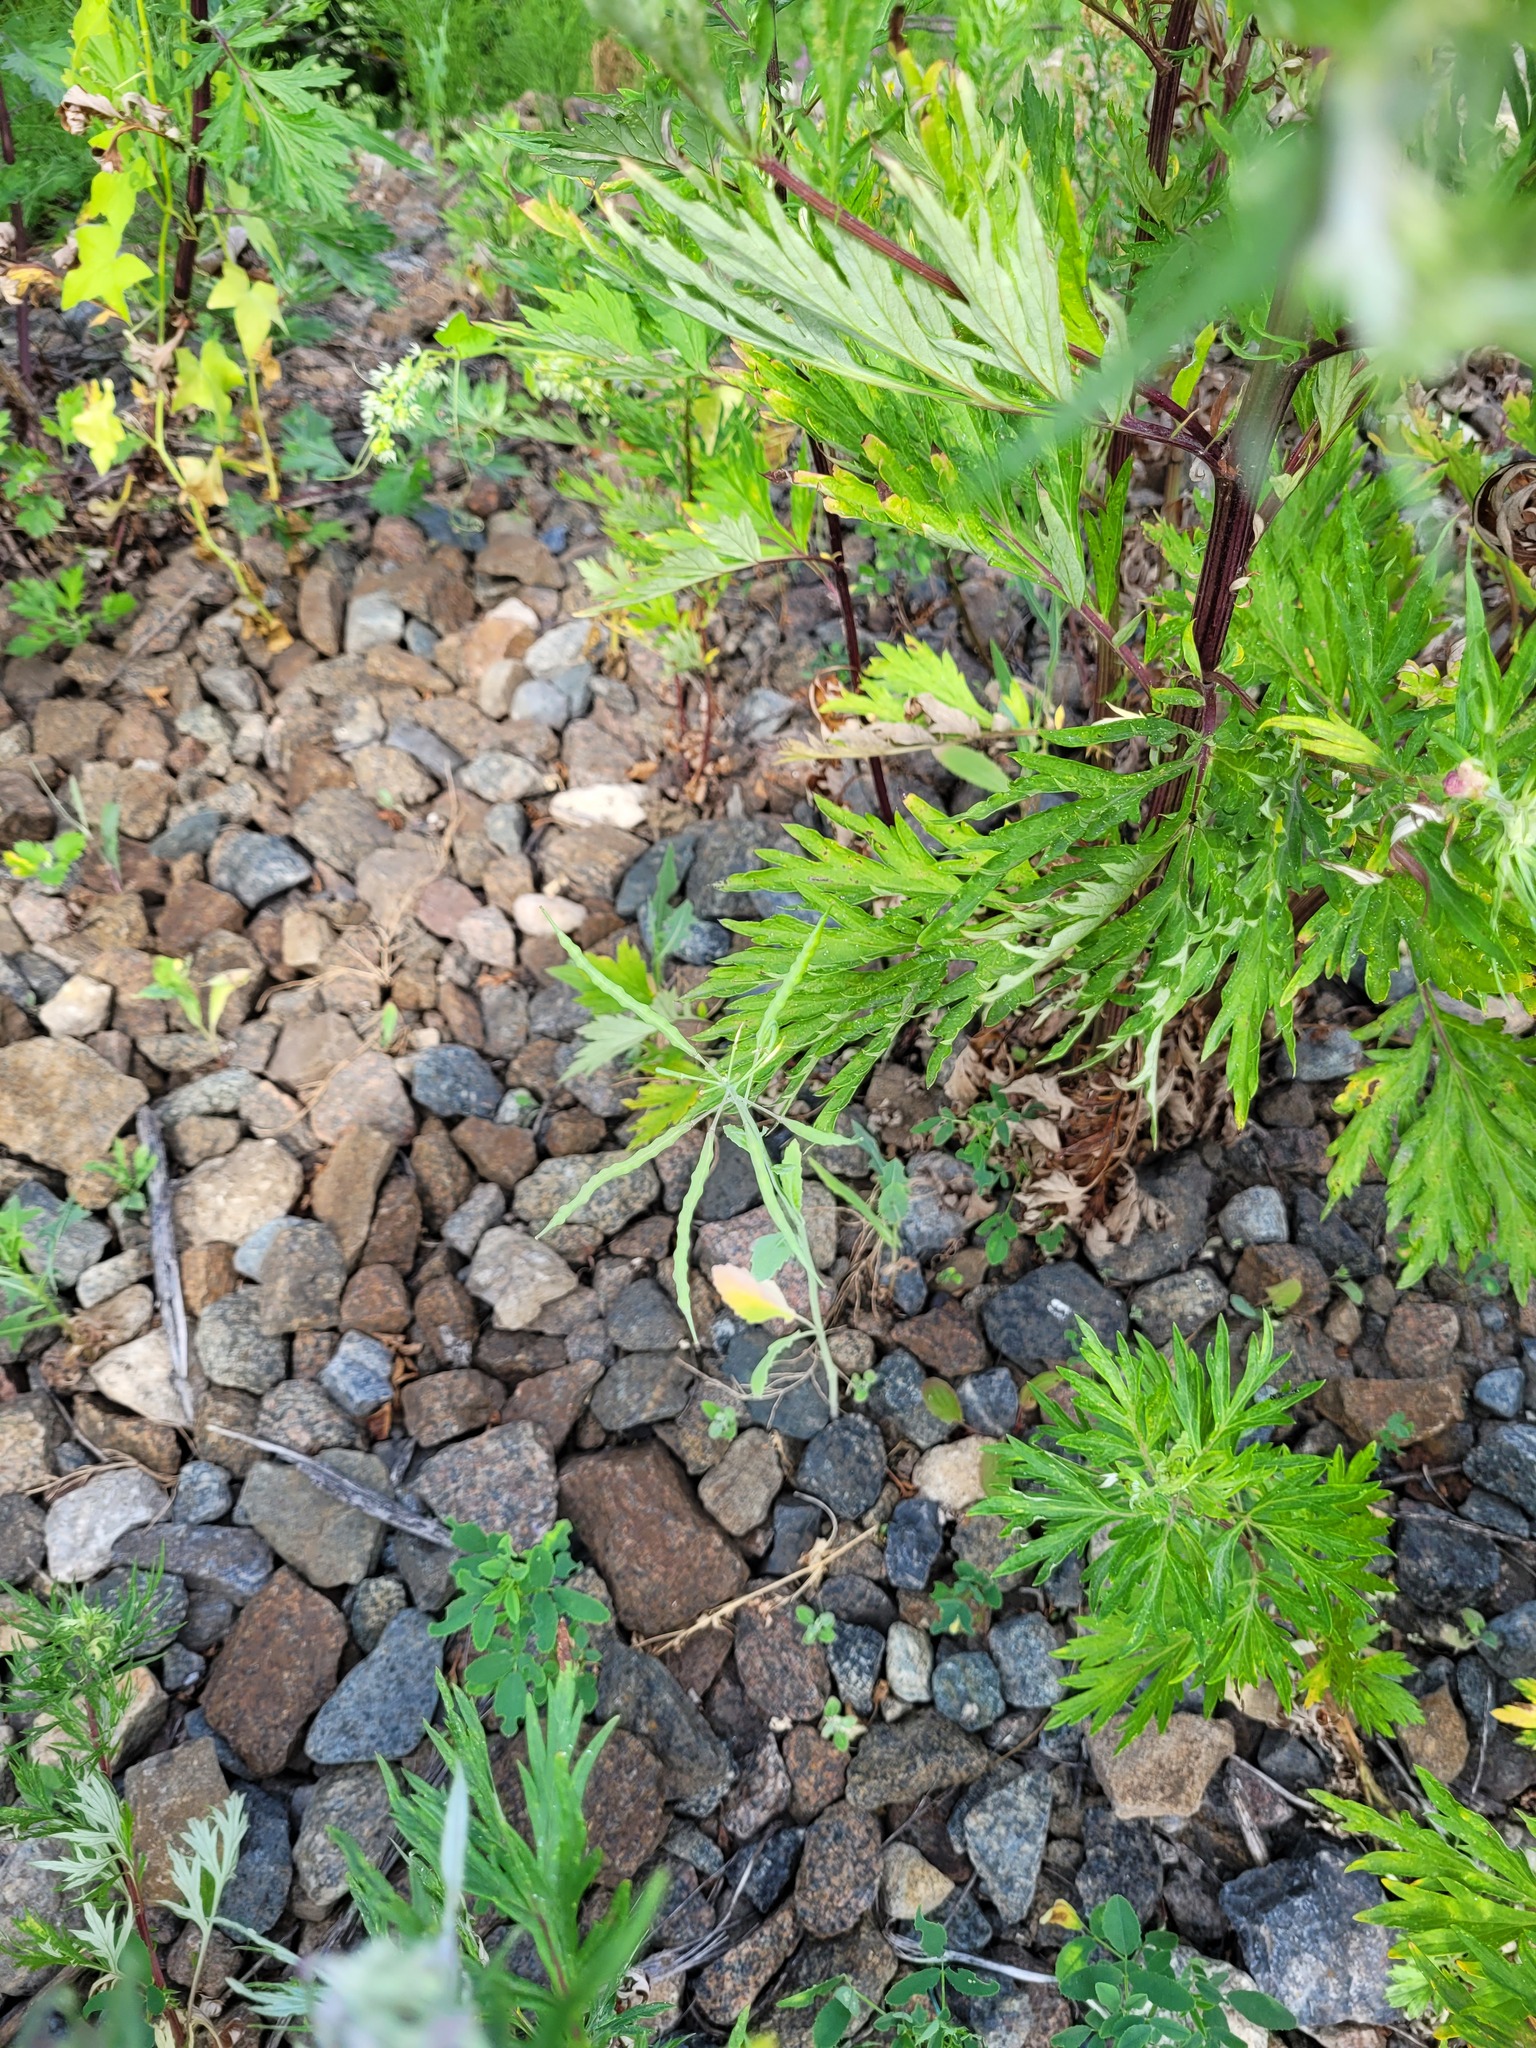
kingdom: Plantae
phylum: Tracheophyta
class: Magnoliopsida
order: Brassicales
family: Brassicaceae
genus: Brassica
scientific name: Brassica napus
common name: Rape
